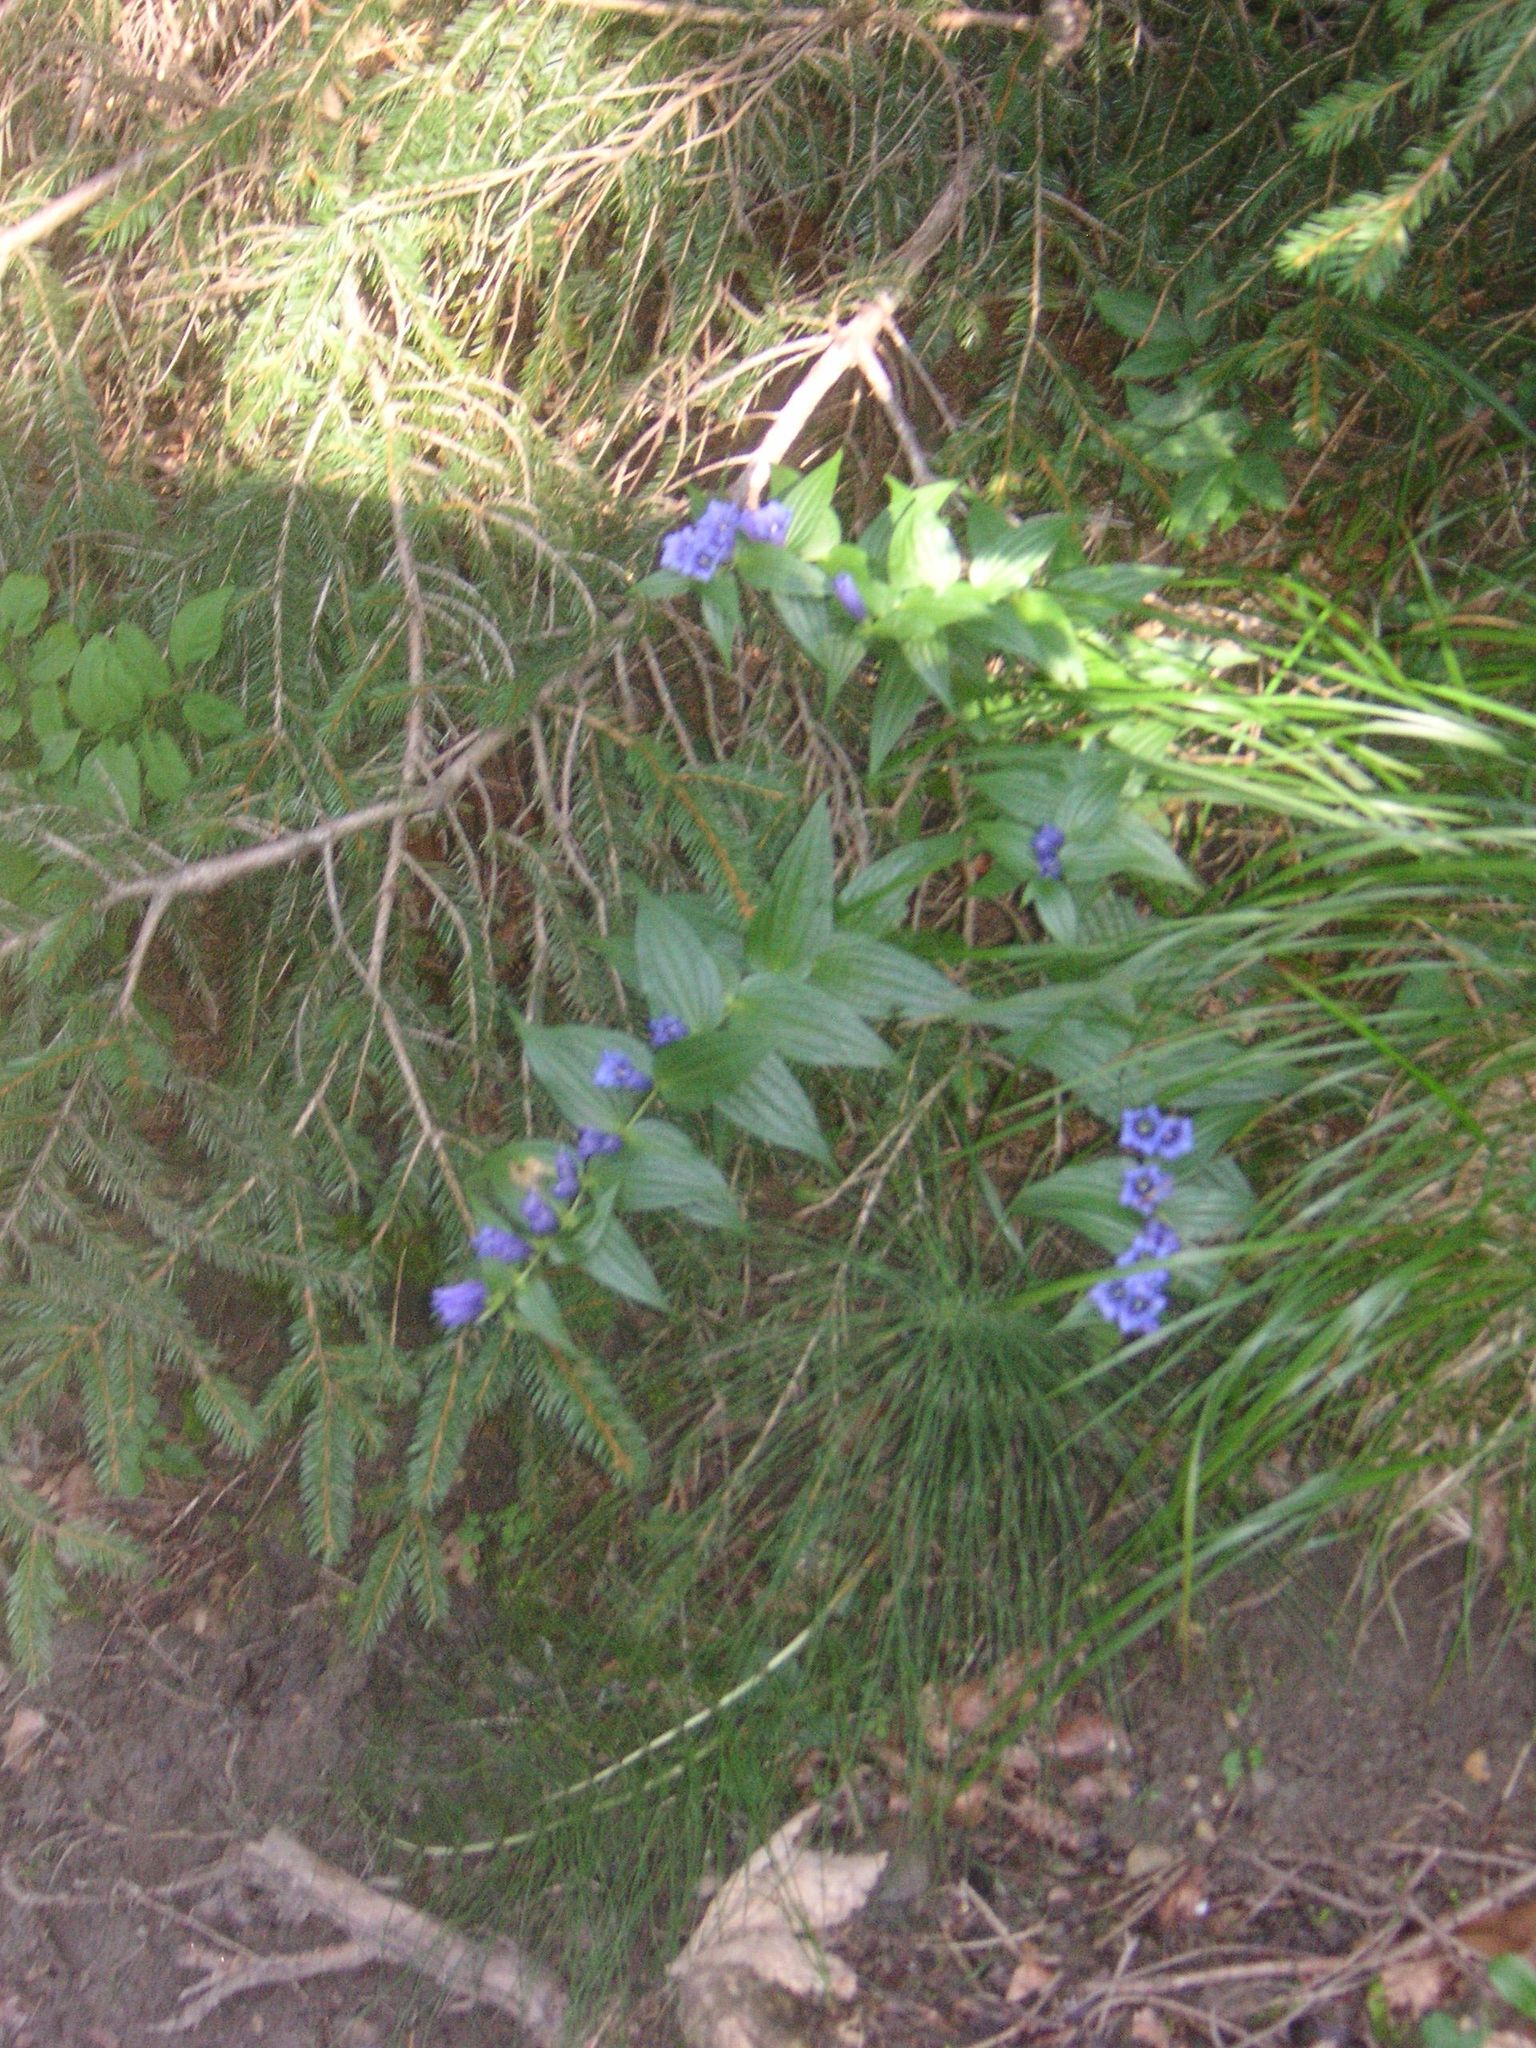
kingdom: Plantae
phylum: Tracheophyta
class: Magnoliopsida
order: Gentianales
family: Gentianaceae
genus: Gentiana
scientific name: Gentiana asclepiadea
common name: Willow gentian
